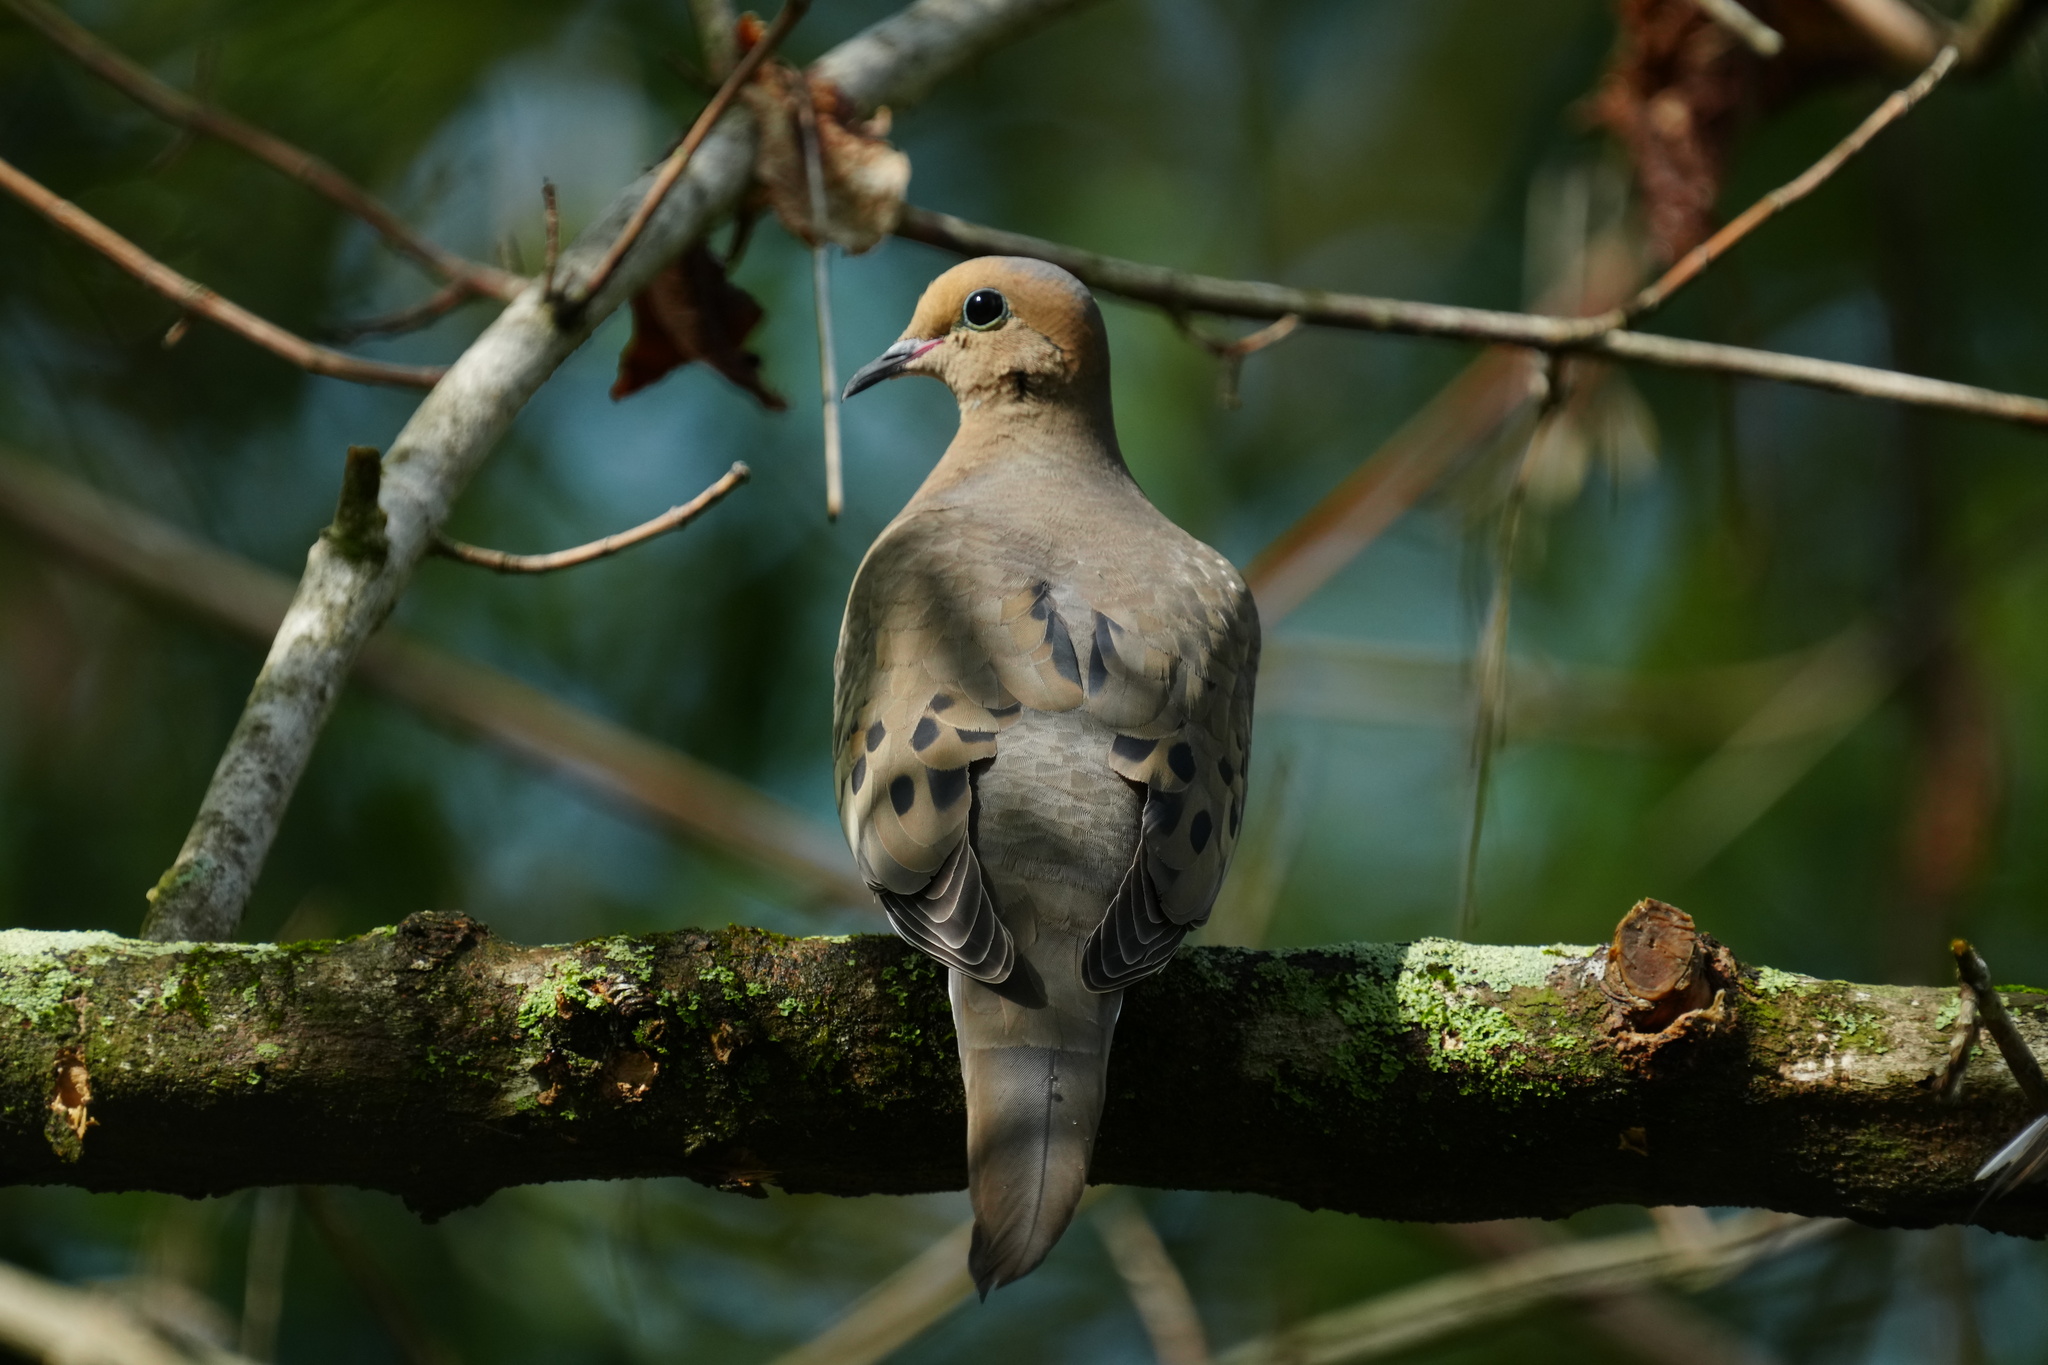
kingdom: Animalia
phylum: Chordata
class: Aves
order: Columbiformes
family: Columbidae
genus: Zenaida
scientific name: Zenaida macroura
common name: Mourning dove
